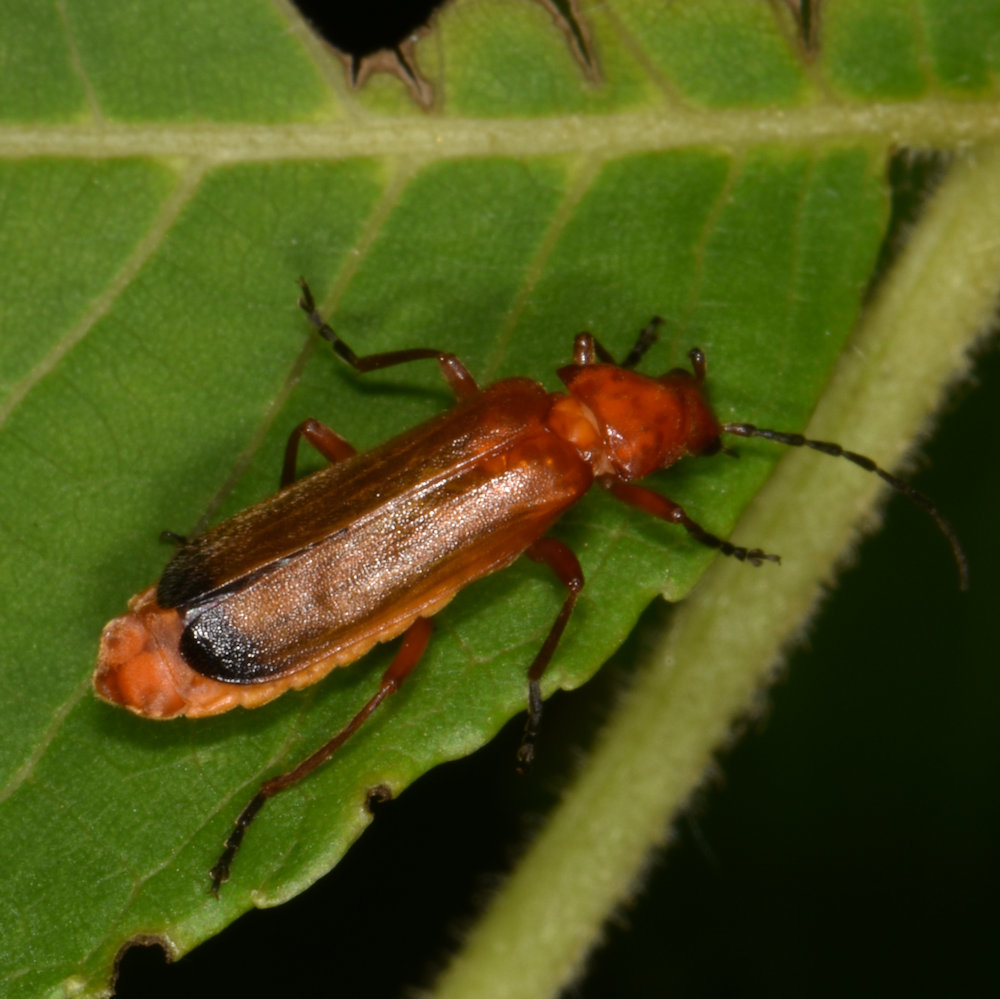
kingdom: Animalia
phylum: Arthropoda
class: Insecta
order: Coleoptera
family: Cantharidae
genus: Rhagonycha
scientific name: Rhagonycha fulva
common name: Common red soldier beetle
